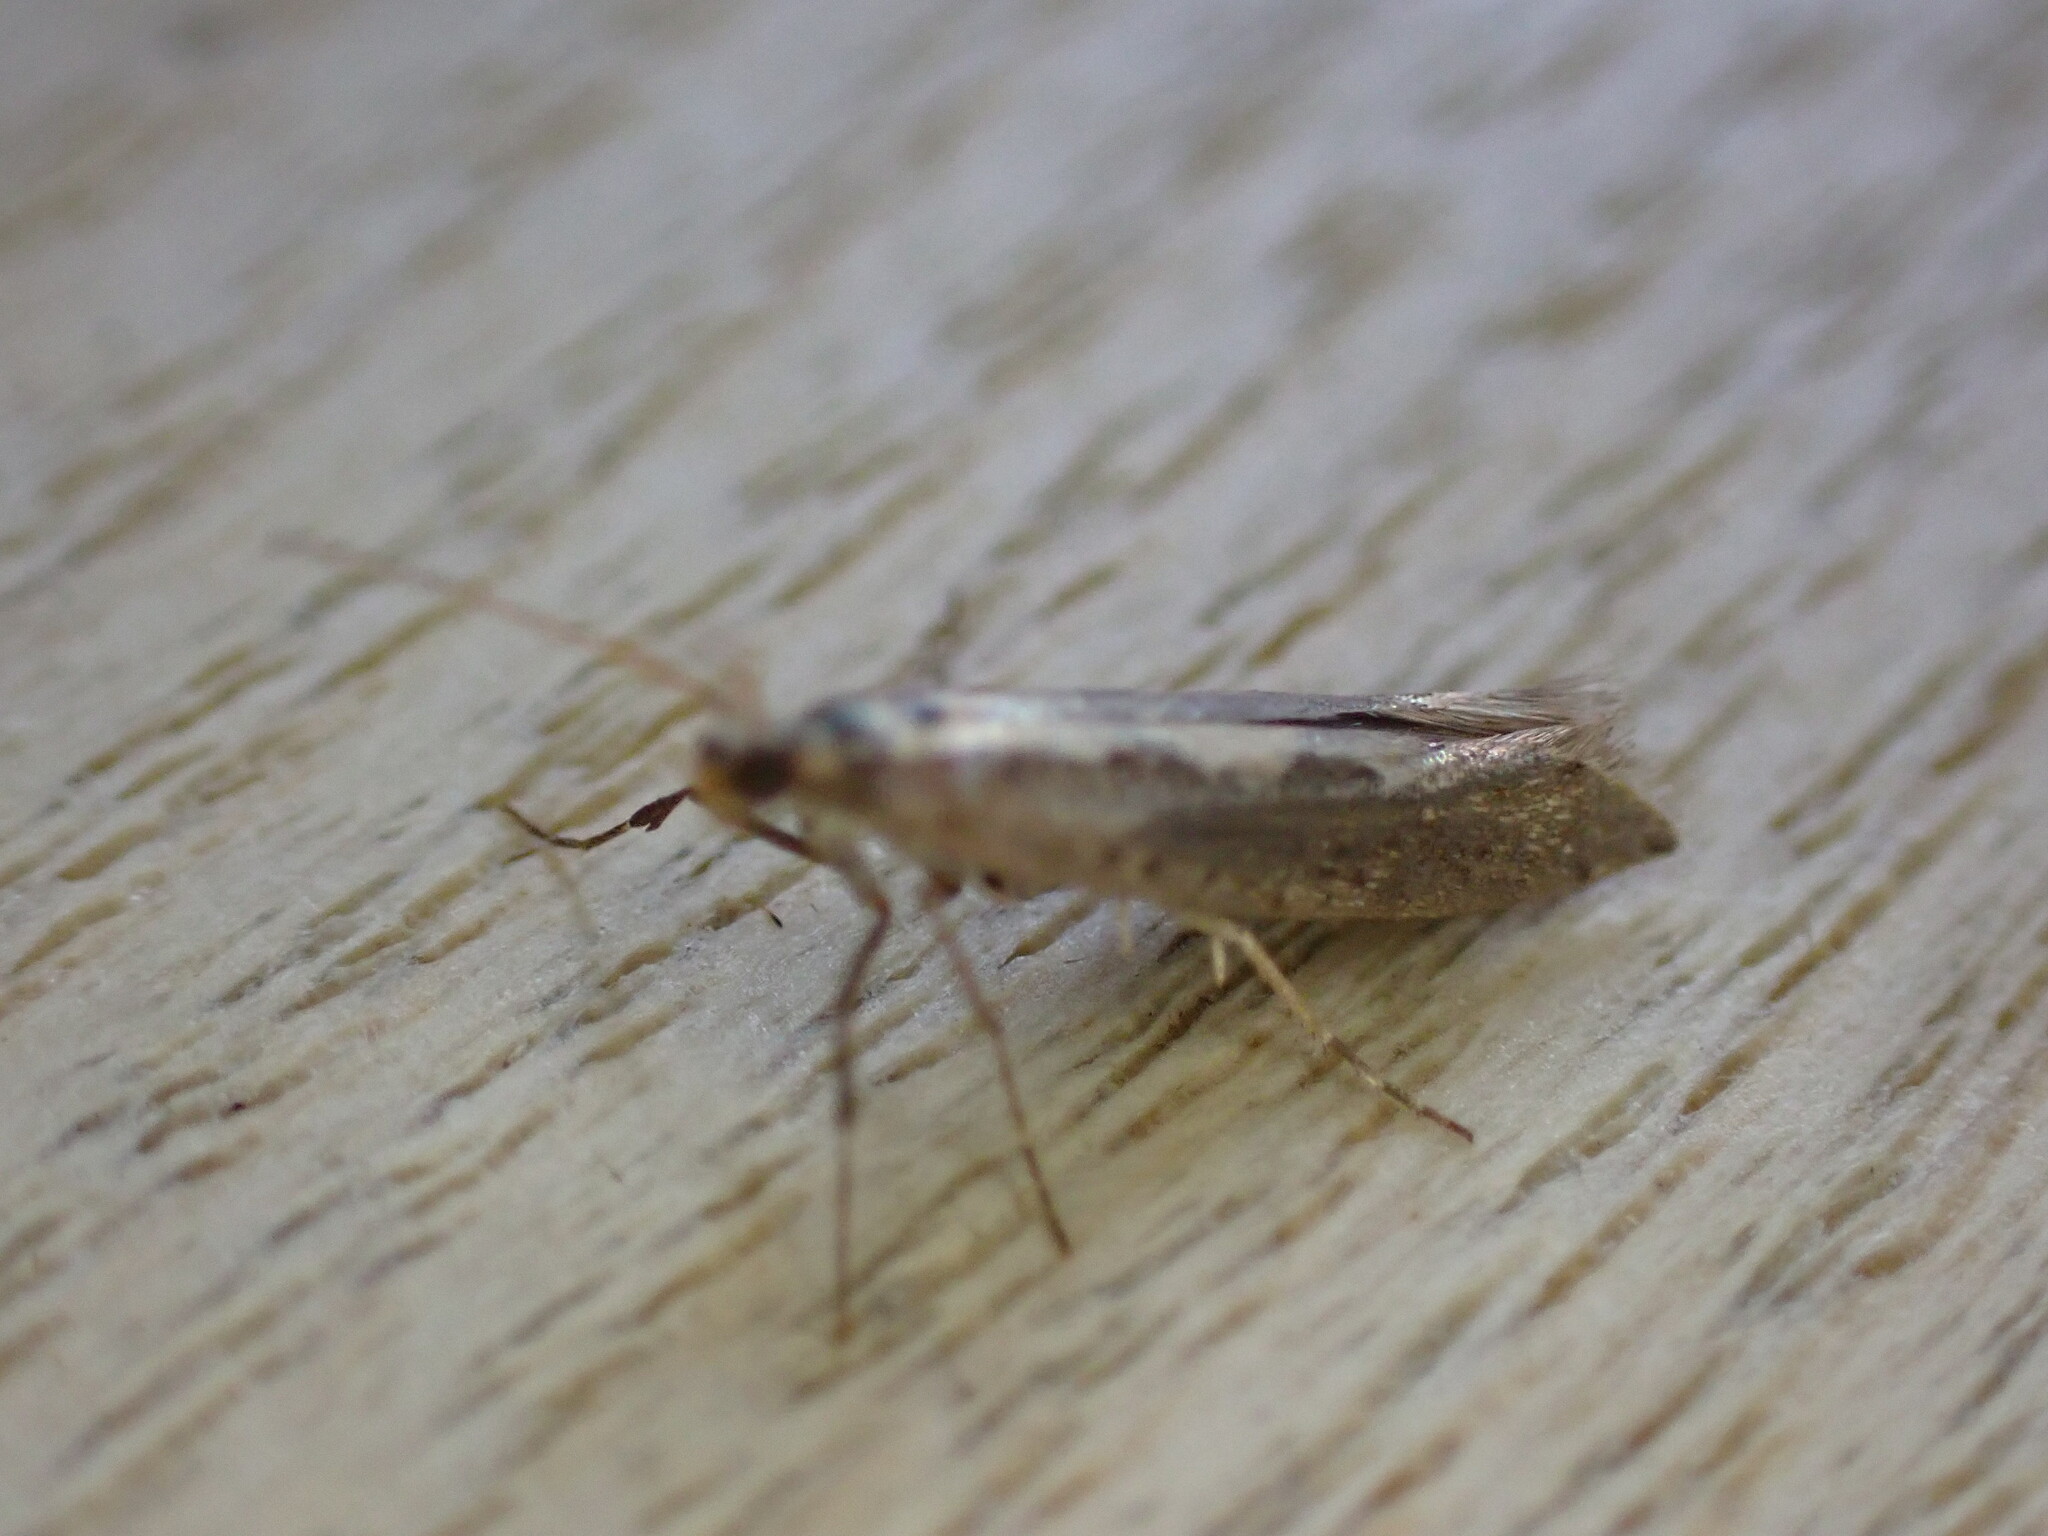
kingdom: Animalia
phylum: Arthropoda
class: Insecta
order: Lepidoptera
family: Plutellidae
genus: Plutella
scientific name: Plutella xylostella
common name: Diamond-back moth
